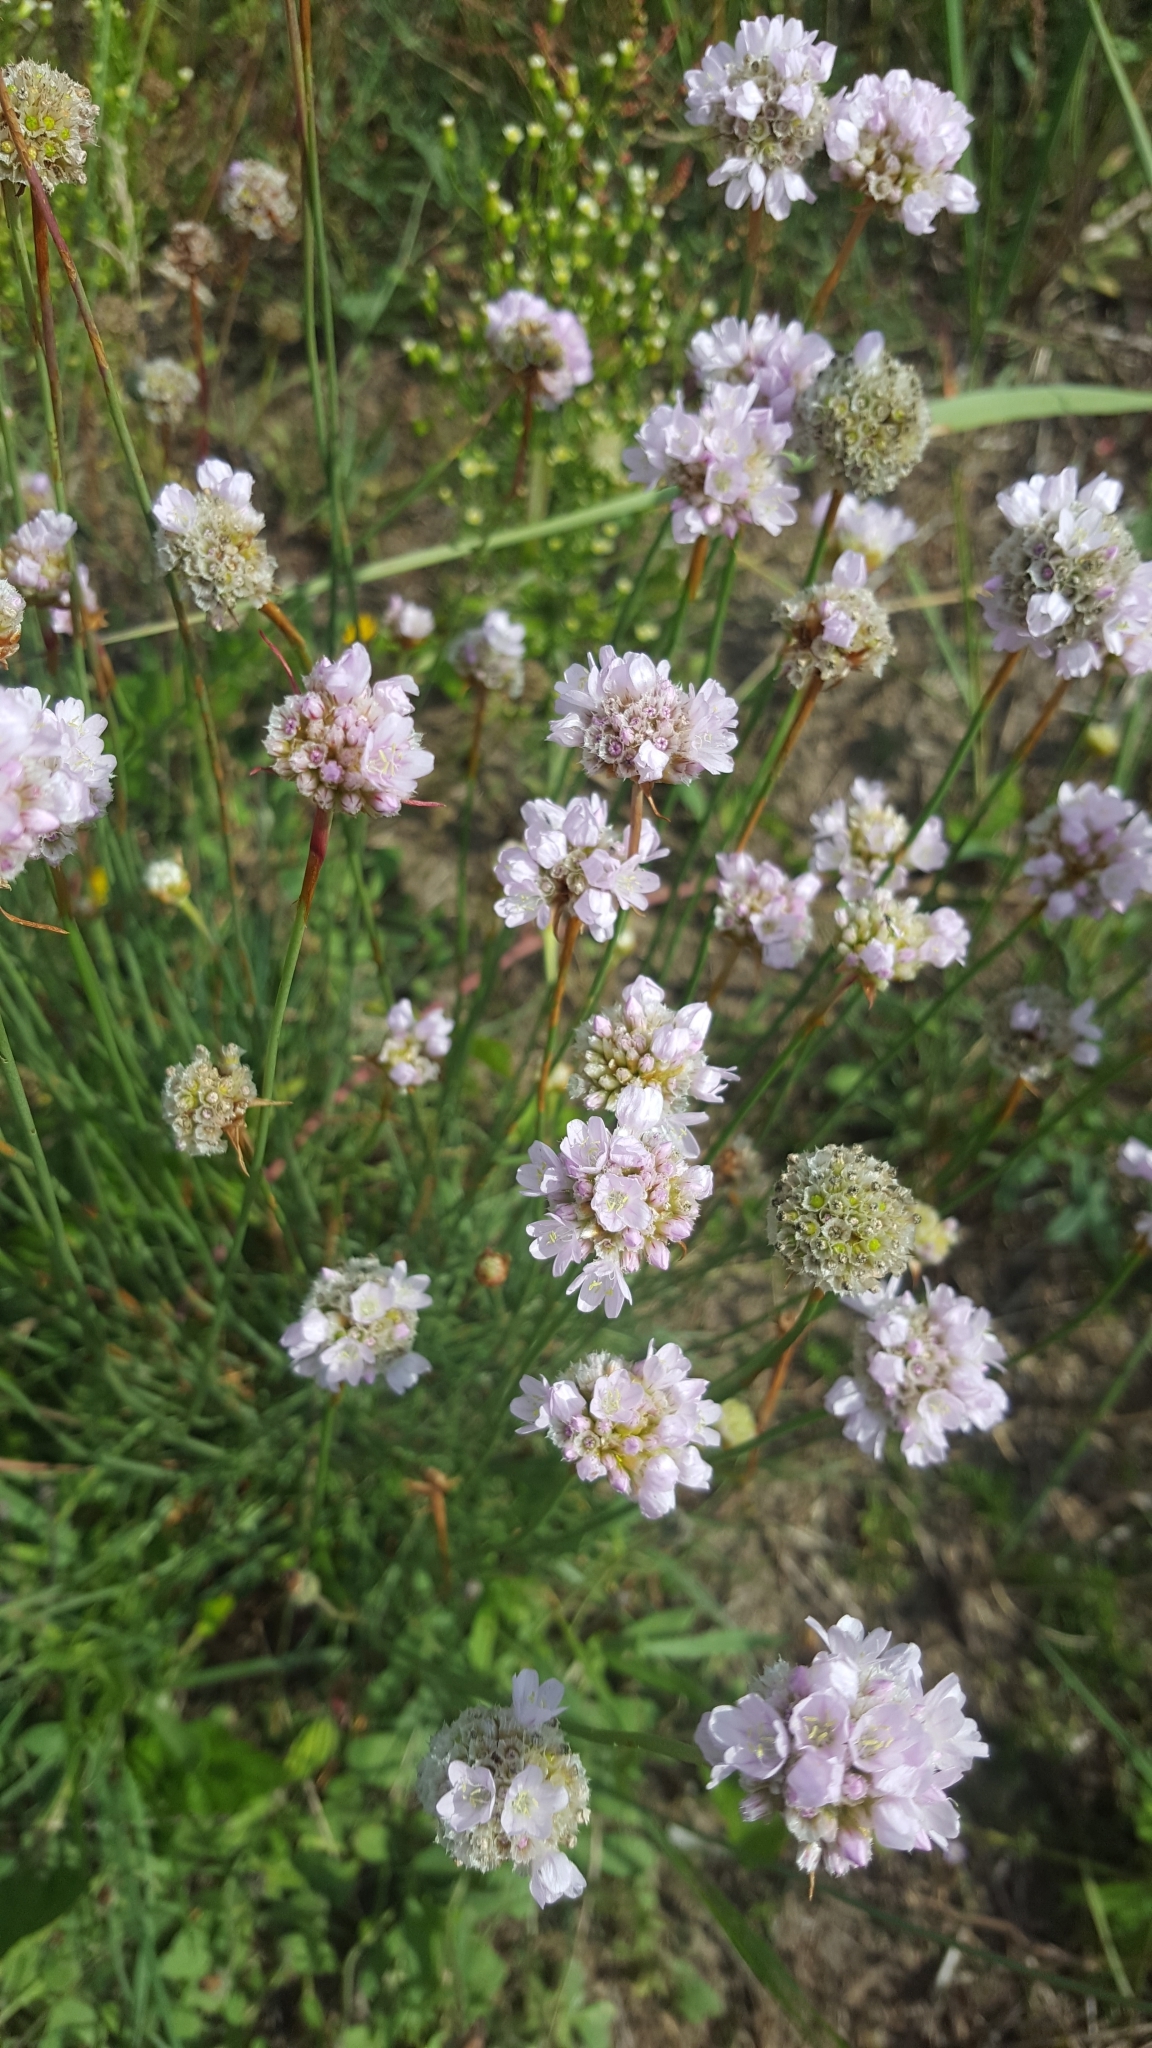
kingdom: Plantae
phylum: Tracheophyta
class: Magnoliopsida
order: Caryophyllales
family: Plumbaginaceae
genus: Armeria
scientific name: Armeria maritima
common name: Thrift
